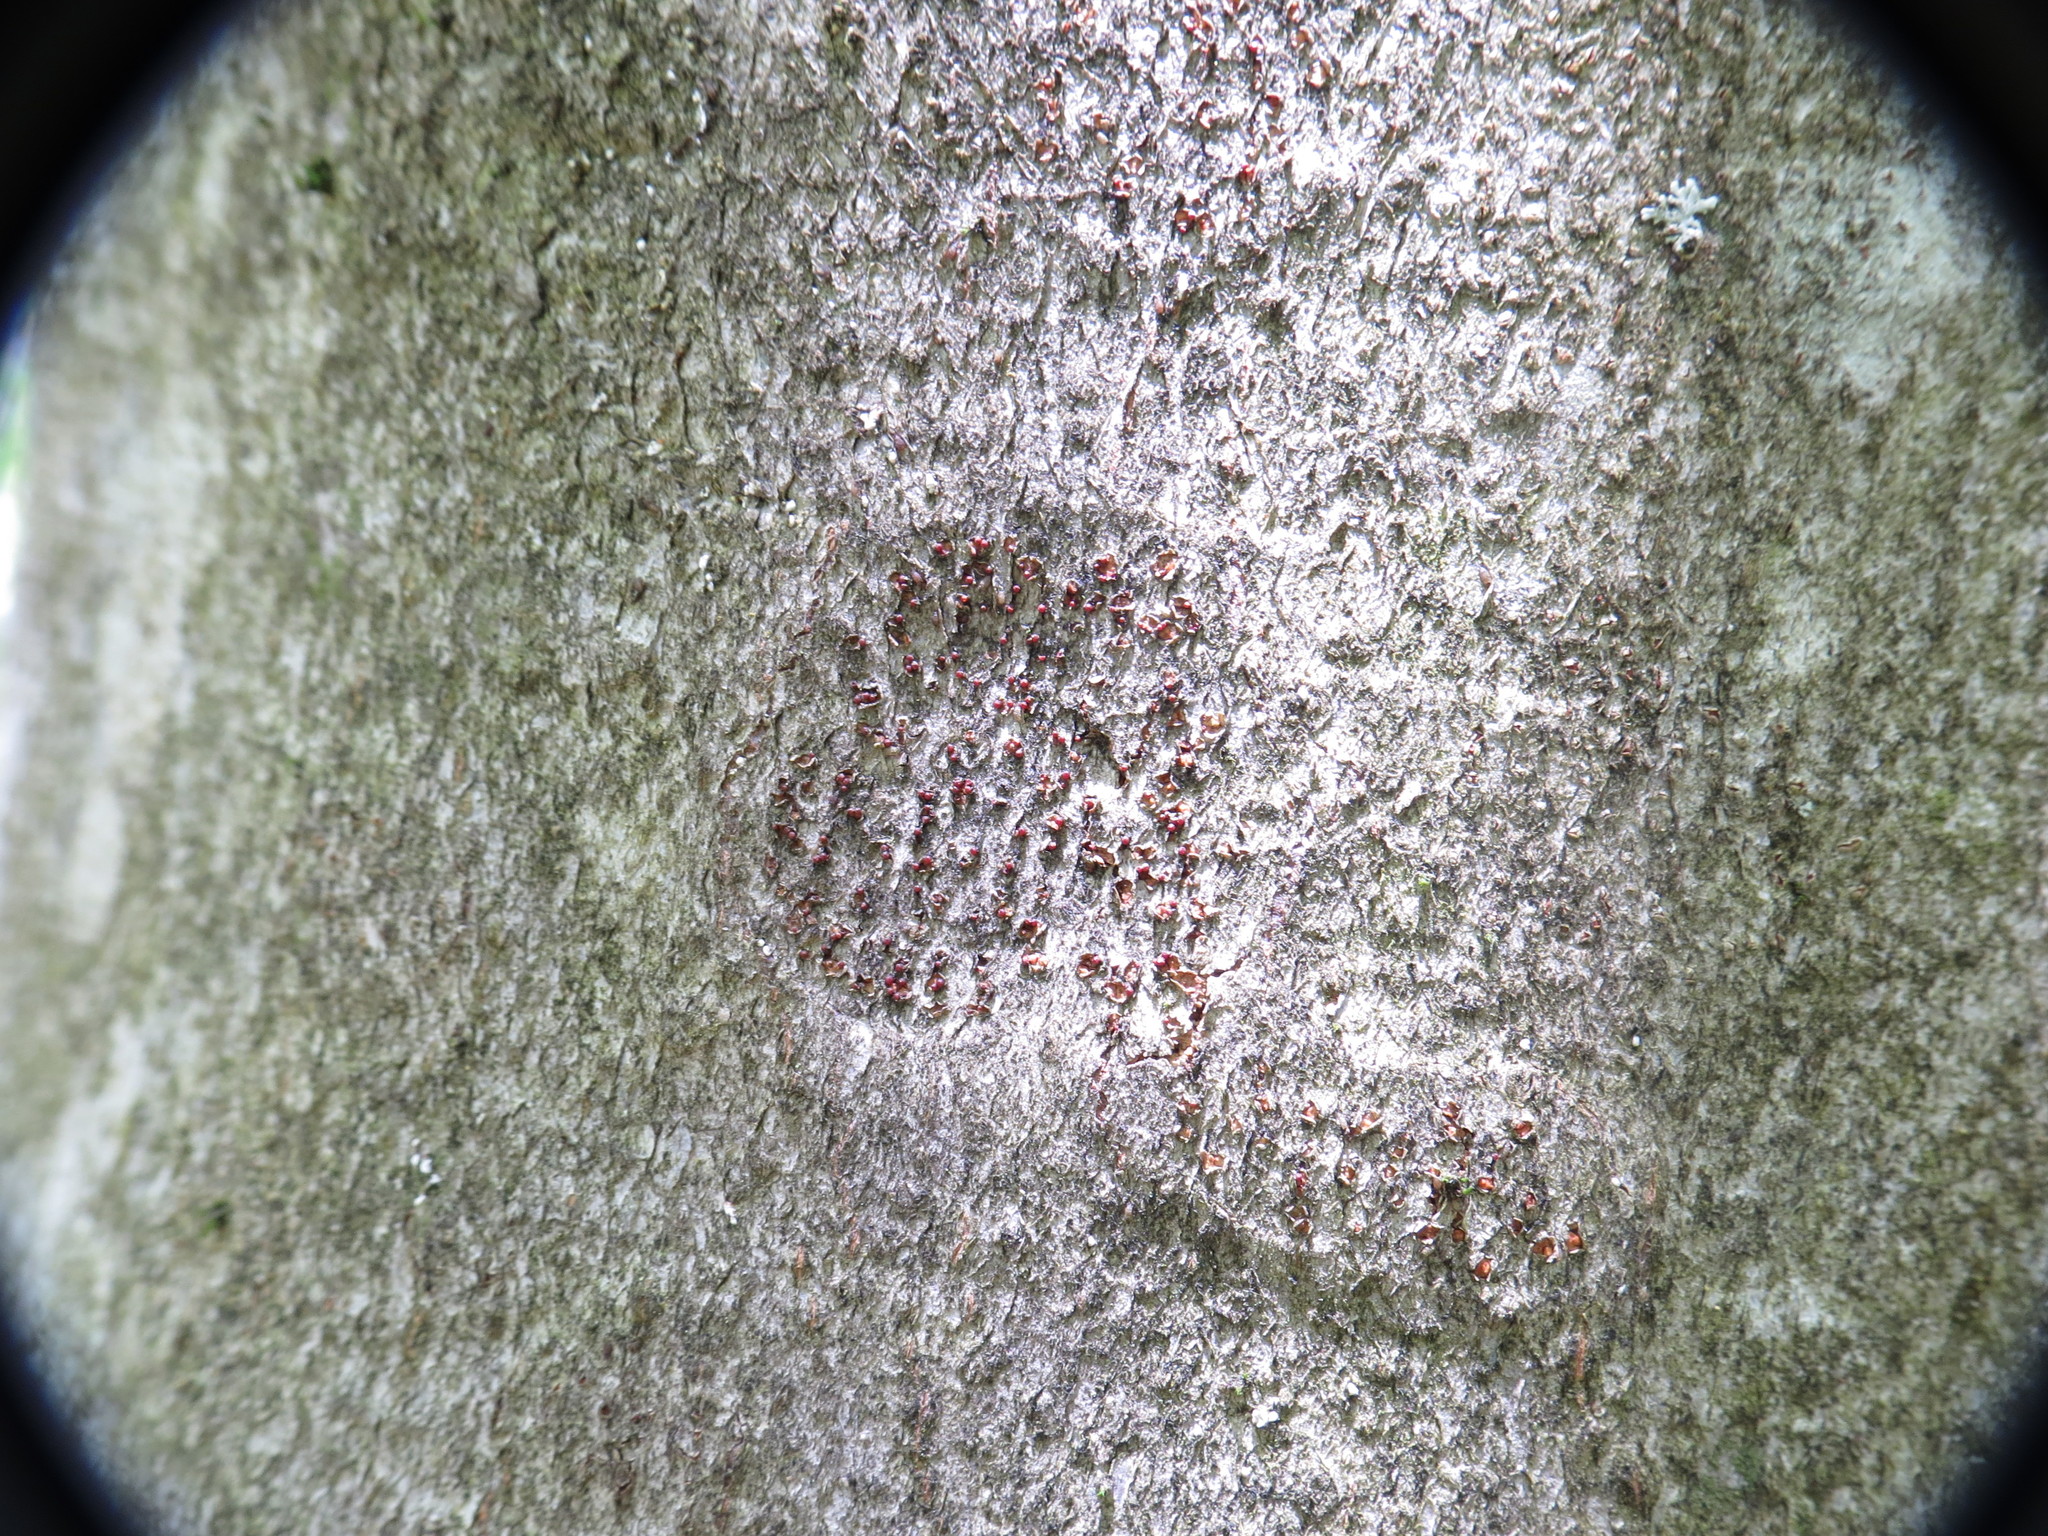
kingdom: Fungi
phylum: Ascomycota
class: Sordariomycetes
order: Hypocreales
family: Nectriaceae
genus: Neonectria
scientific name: Neonectria faginata
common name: Beech bark canker
